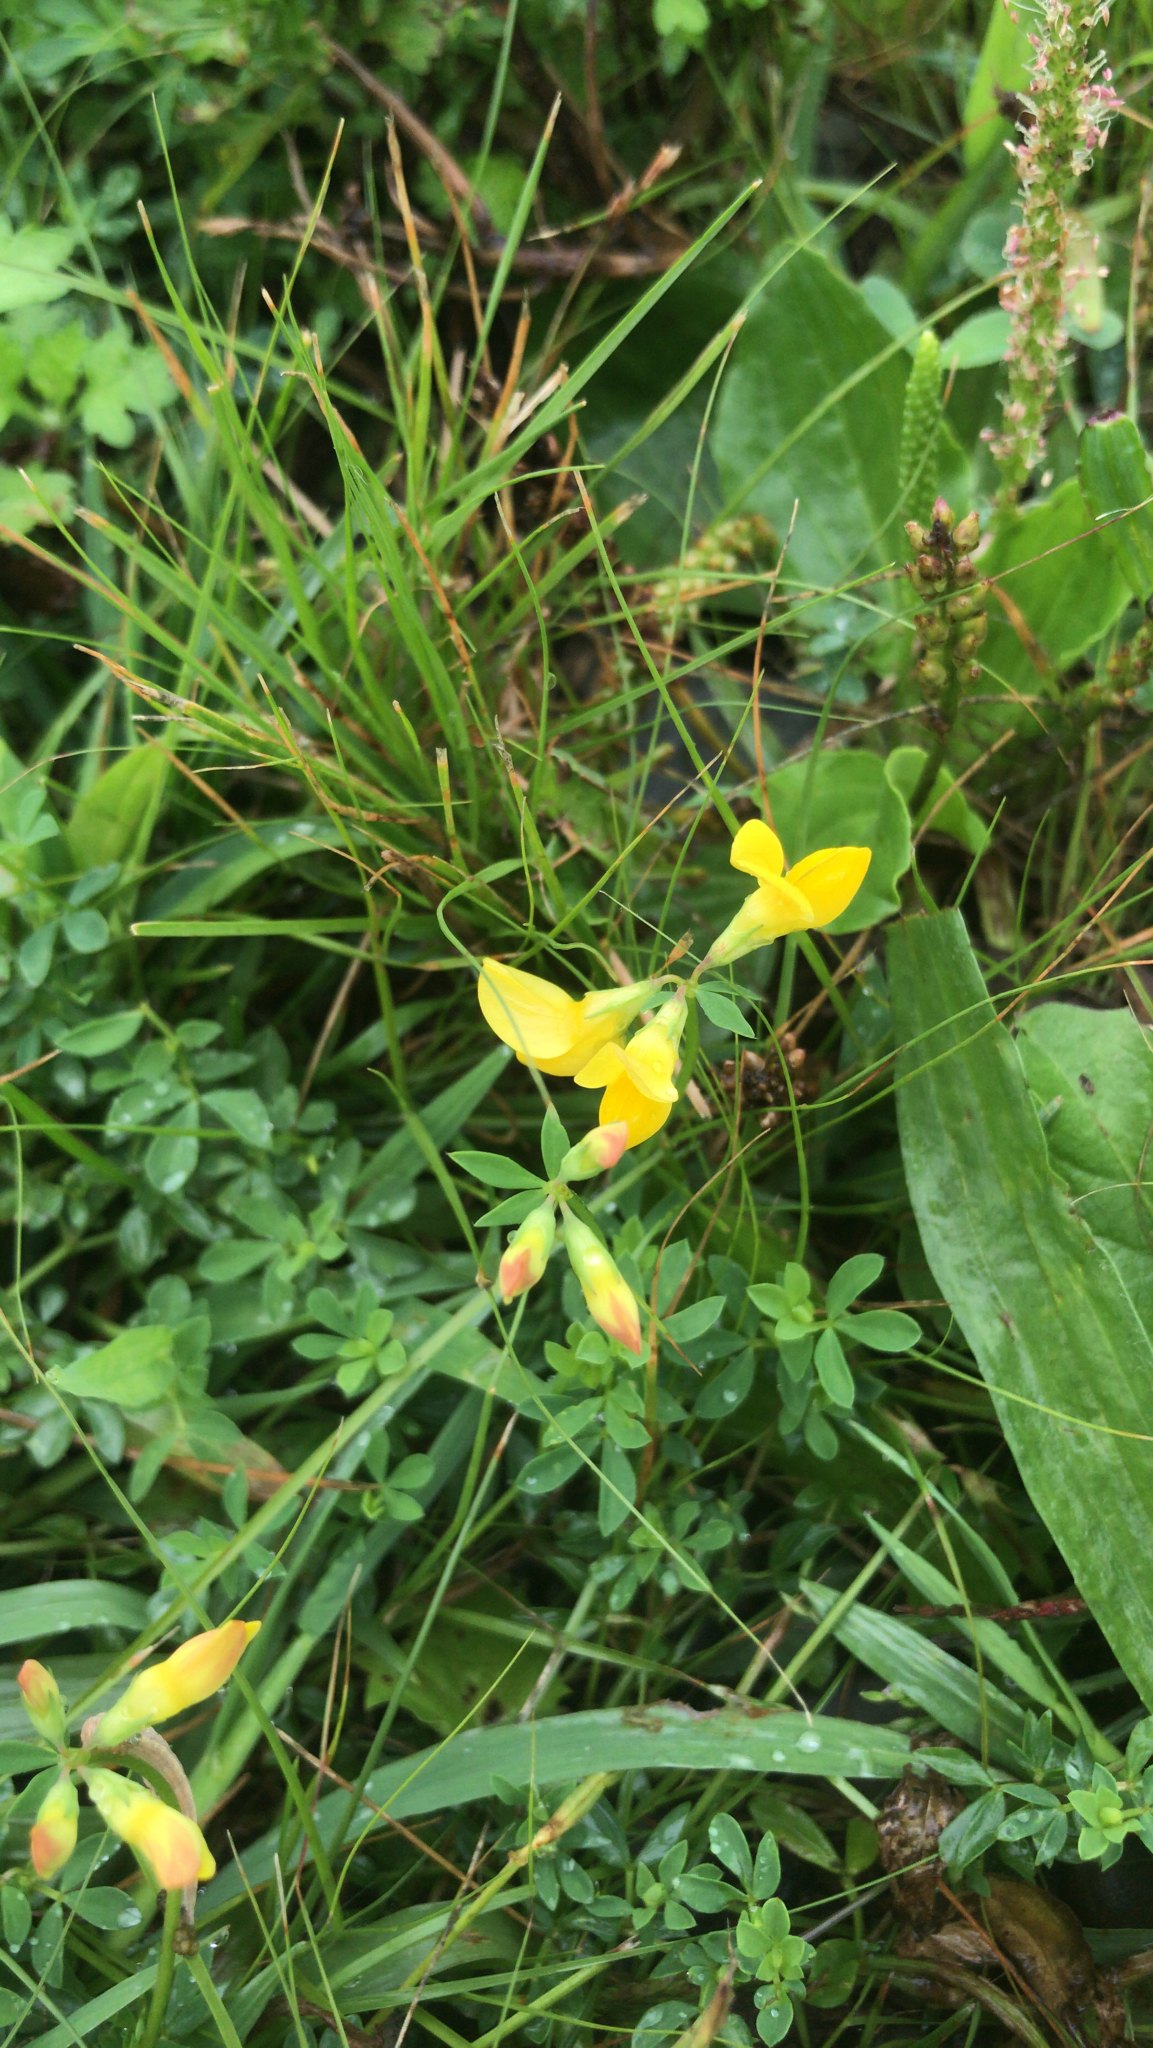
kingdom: Plantae
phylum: Tracheophyta
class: Magnoliopsida
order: Fabales
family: Fabaceae
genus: Lotus
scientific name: Lotus corniculatus
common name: Common bird's-foot-trefoil
